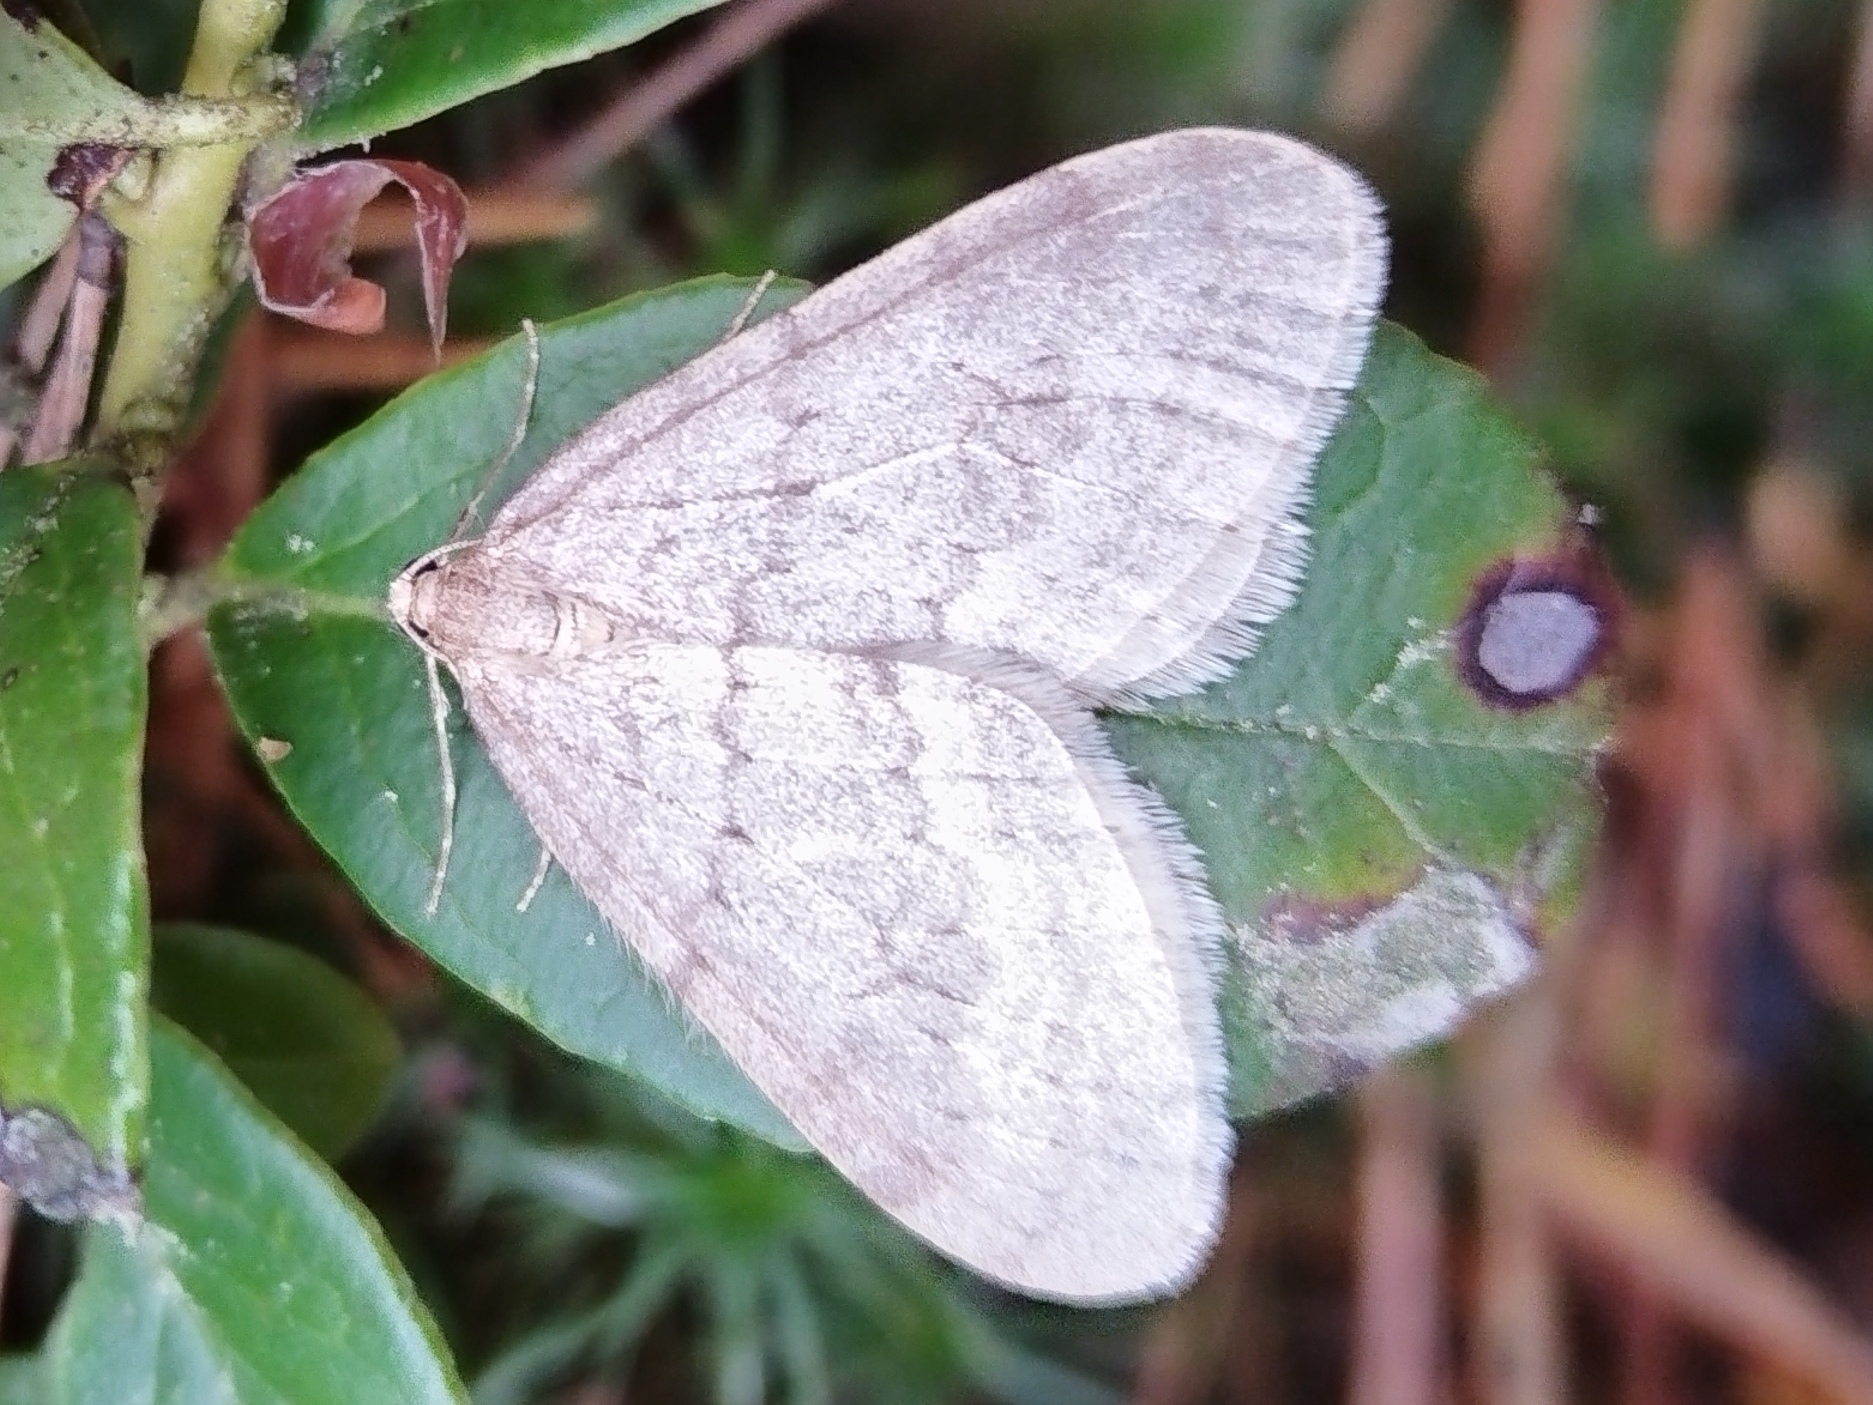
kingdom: Animalia
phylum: Arthropoda
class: Insecta
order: Lepidoptera
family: Geometridae
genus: Operophtera
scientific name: Operophtera fagata
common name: Northern winter moth
